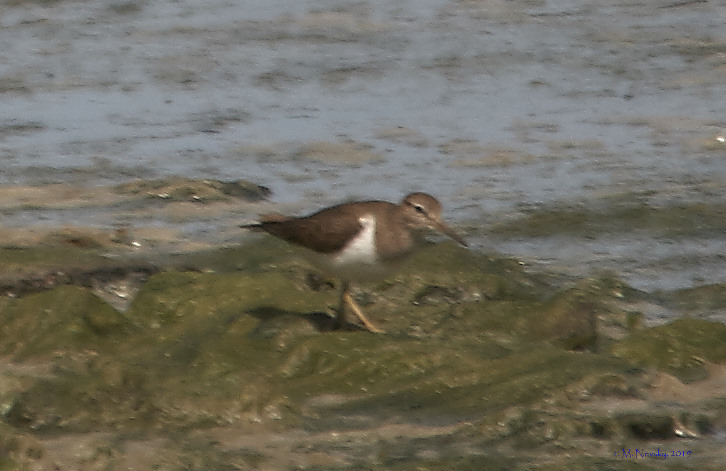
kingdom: Animalia
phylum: Chordata
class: Aves
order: Charadriiformes
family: Scolopacidae
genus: Actitis
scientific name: Actitis hypoleucos
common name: Common sandpiper
